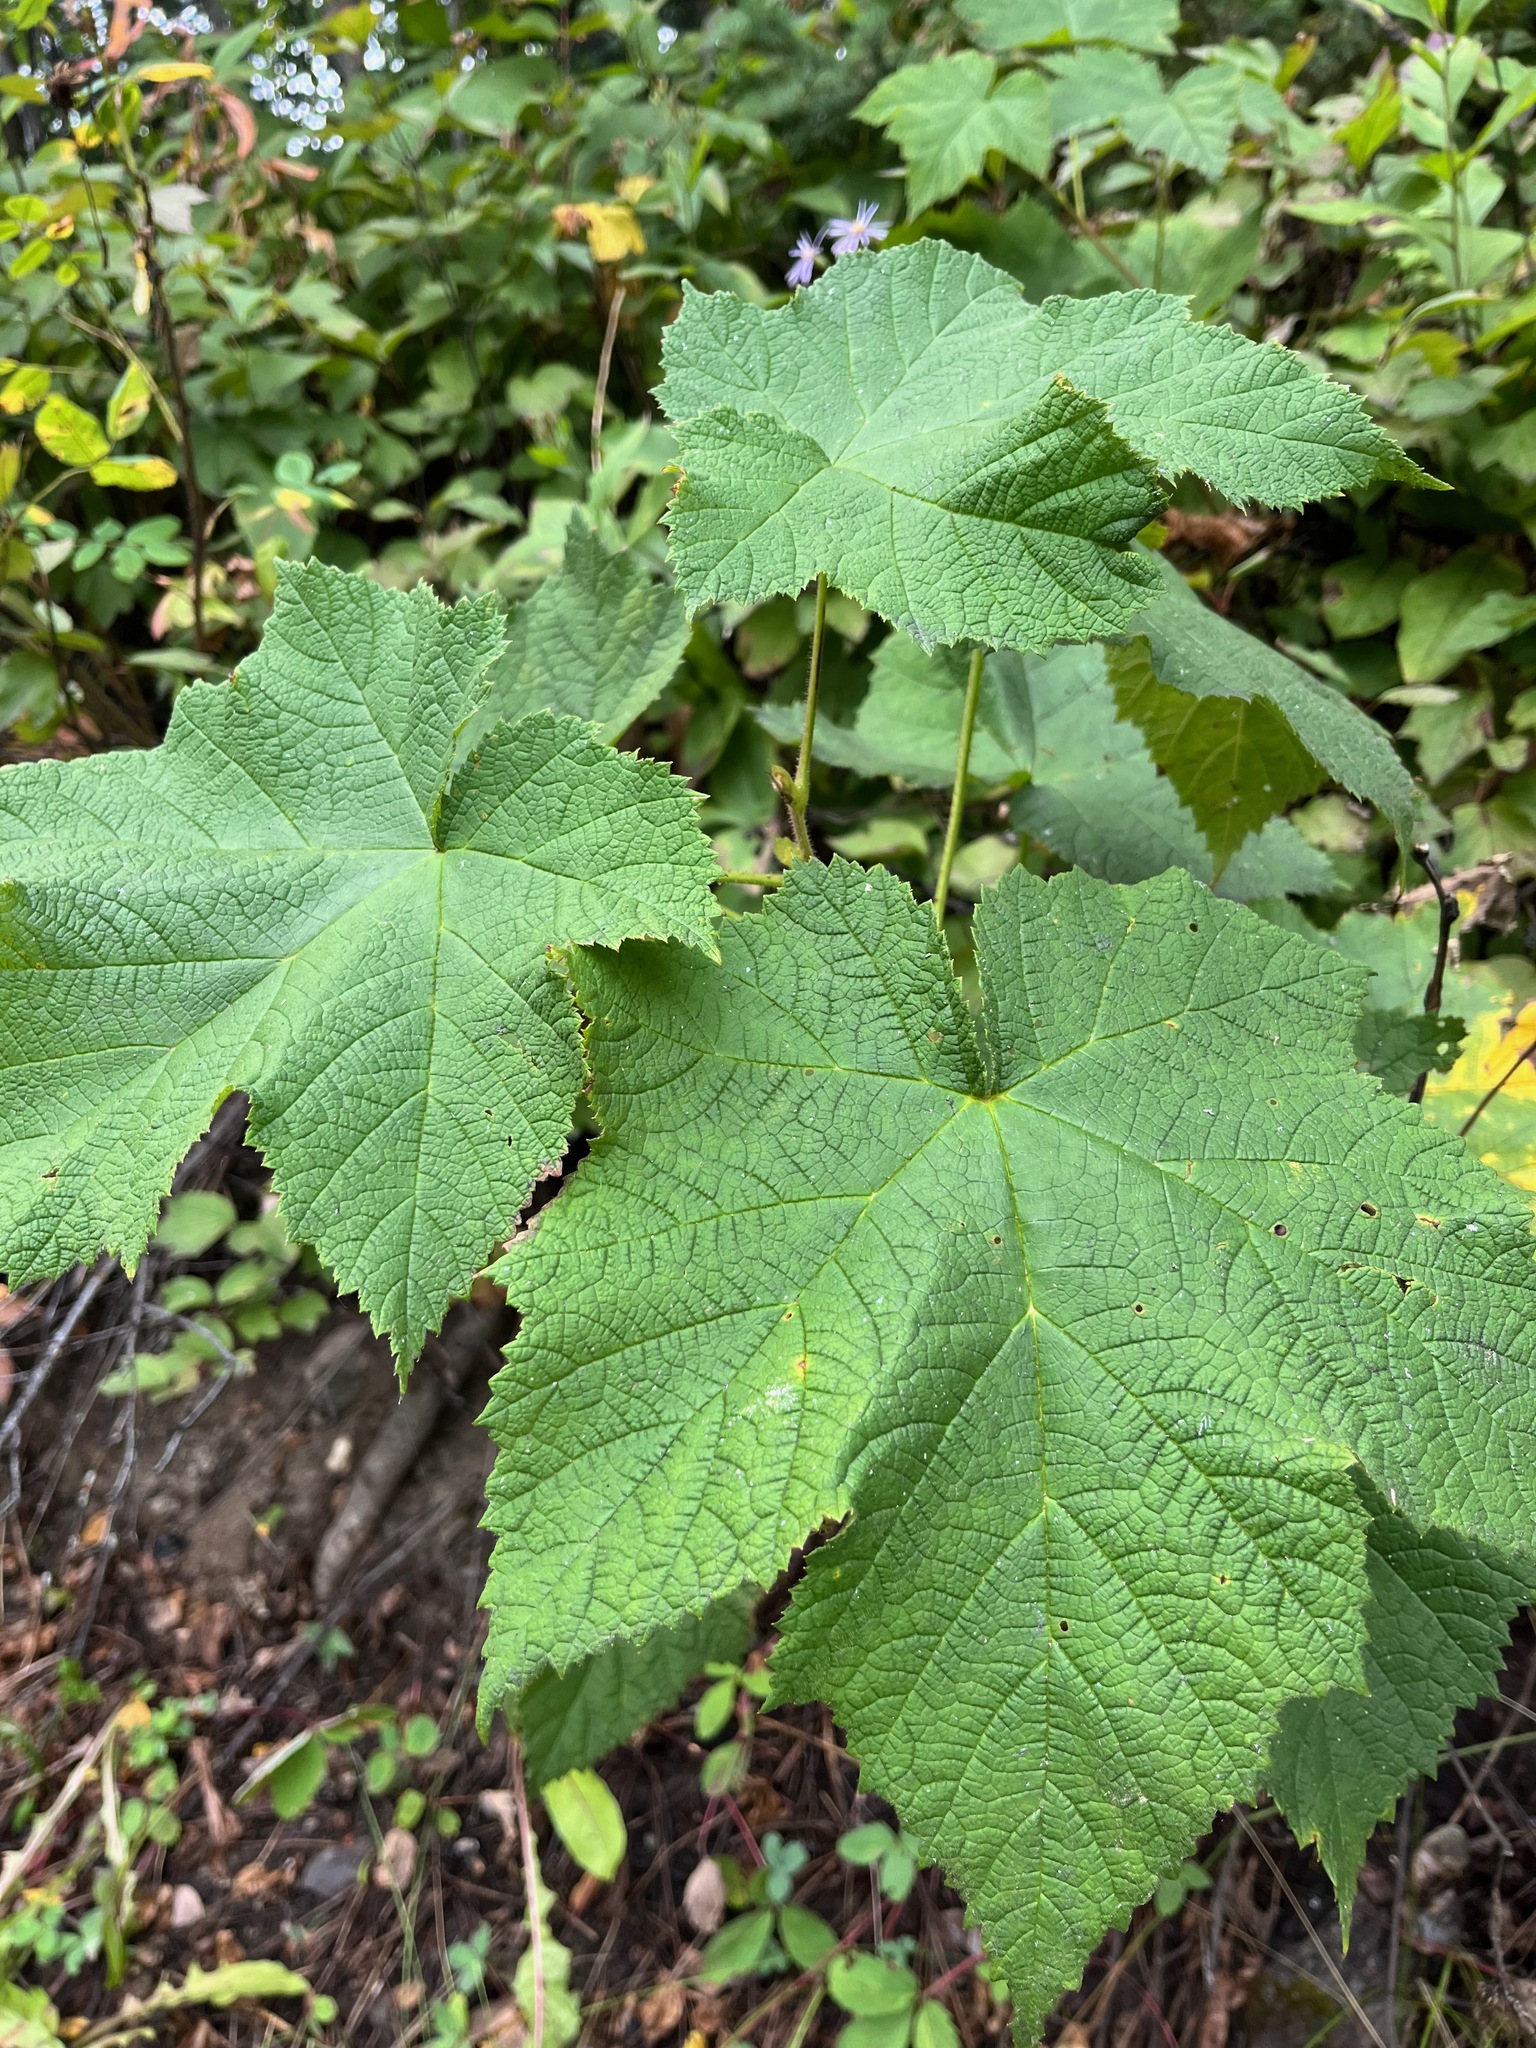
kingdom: Plantae
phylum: Tracheophyta
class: Magnoliopsida
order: Rosales
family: Rosaceae
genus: Rubus
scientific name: Rubus parviflorus
